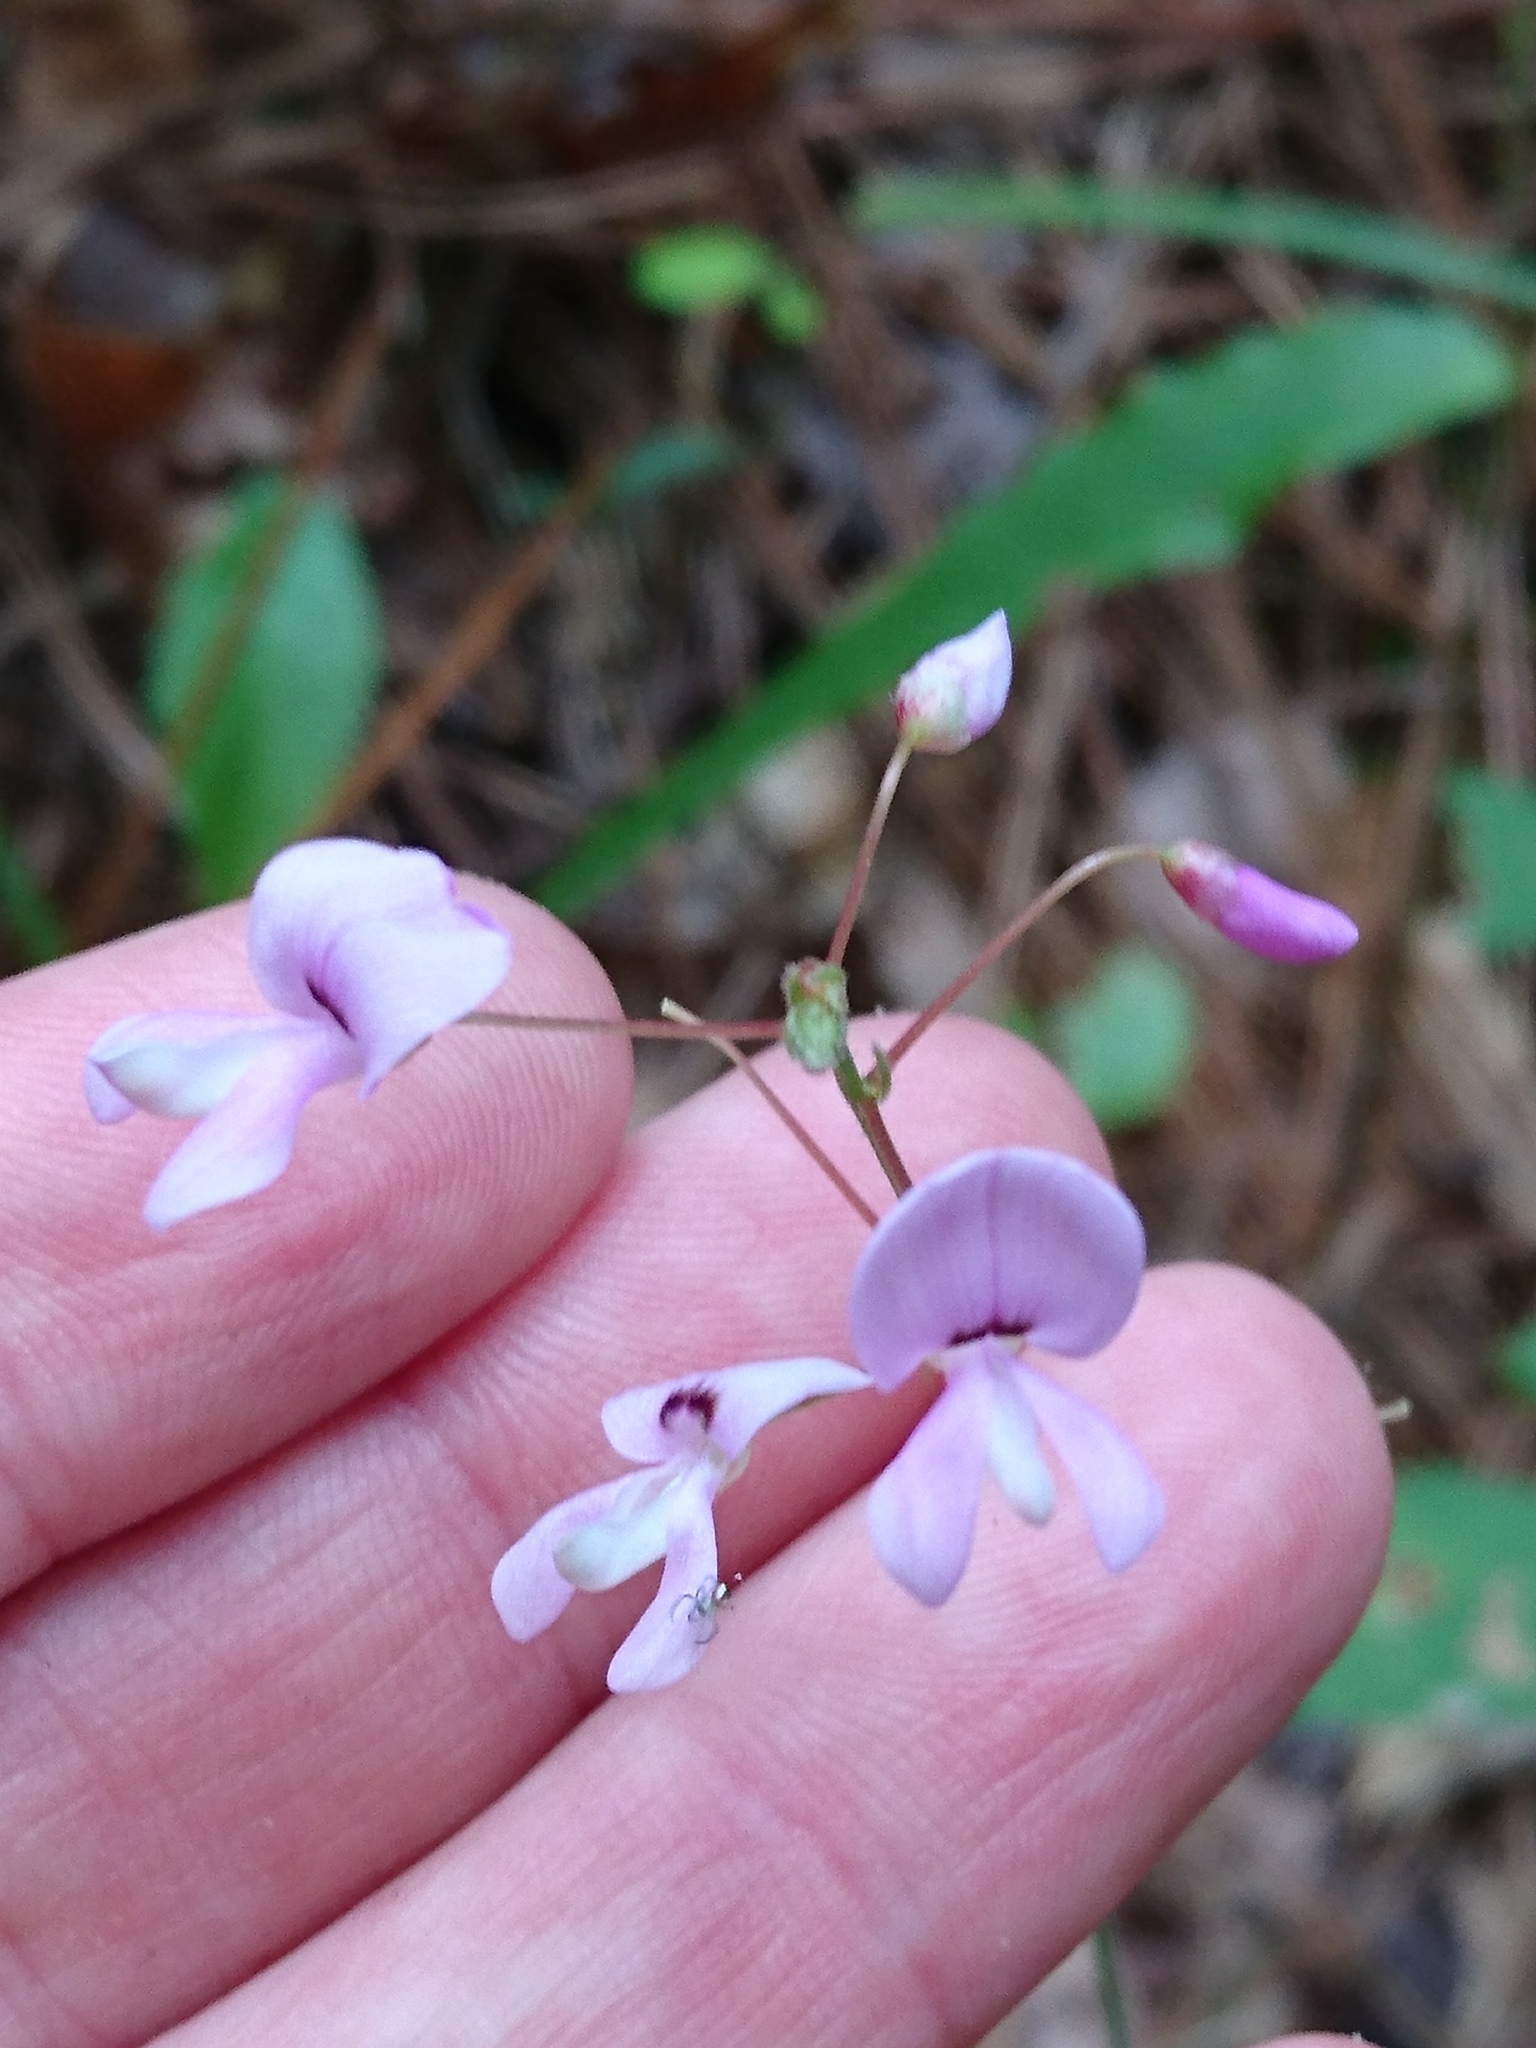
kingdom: Plantae
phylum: Tracheophyta
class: Magnoliopsida
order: Fabales
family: Fabaceae
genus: Hylodesmum
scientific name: Hylodesmum nudiflorum
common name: Bare-stemmed tick-trefoil
